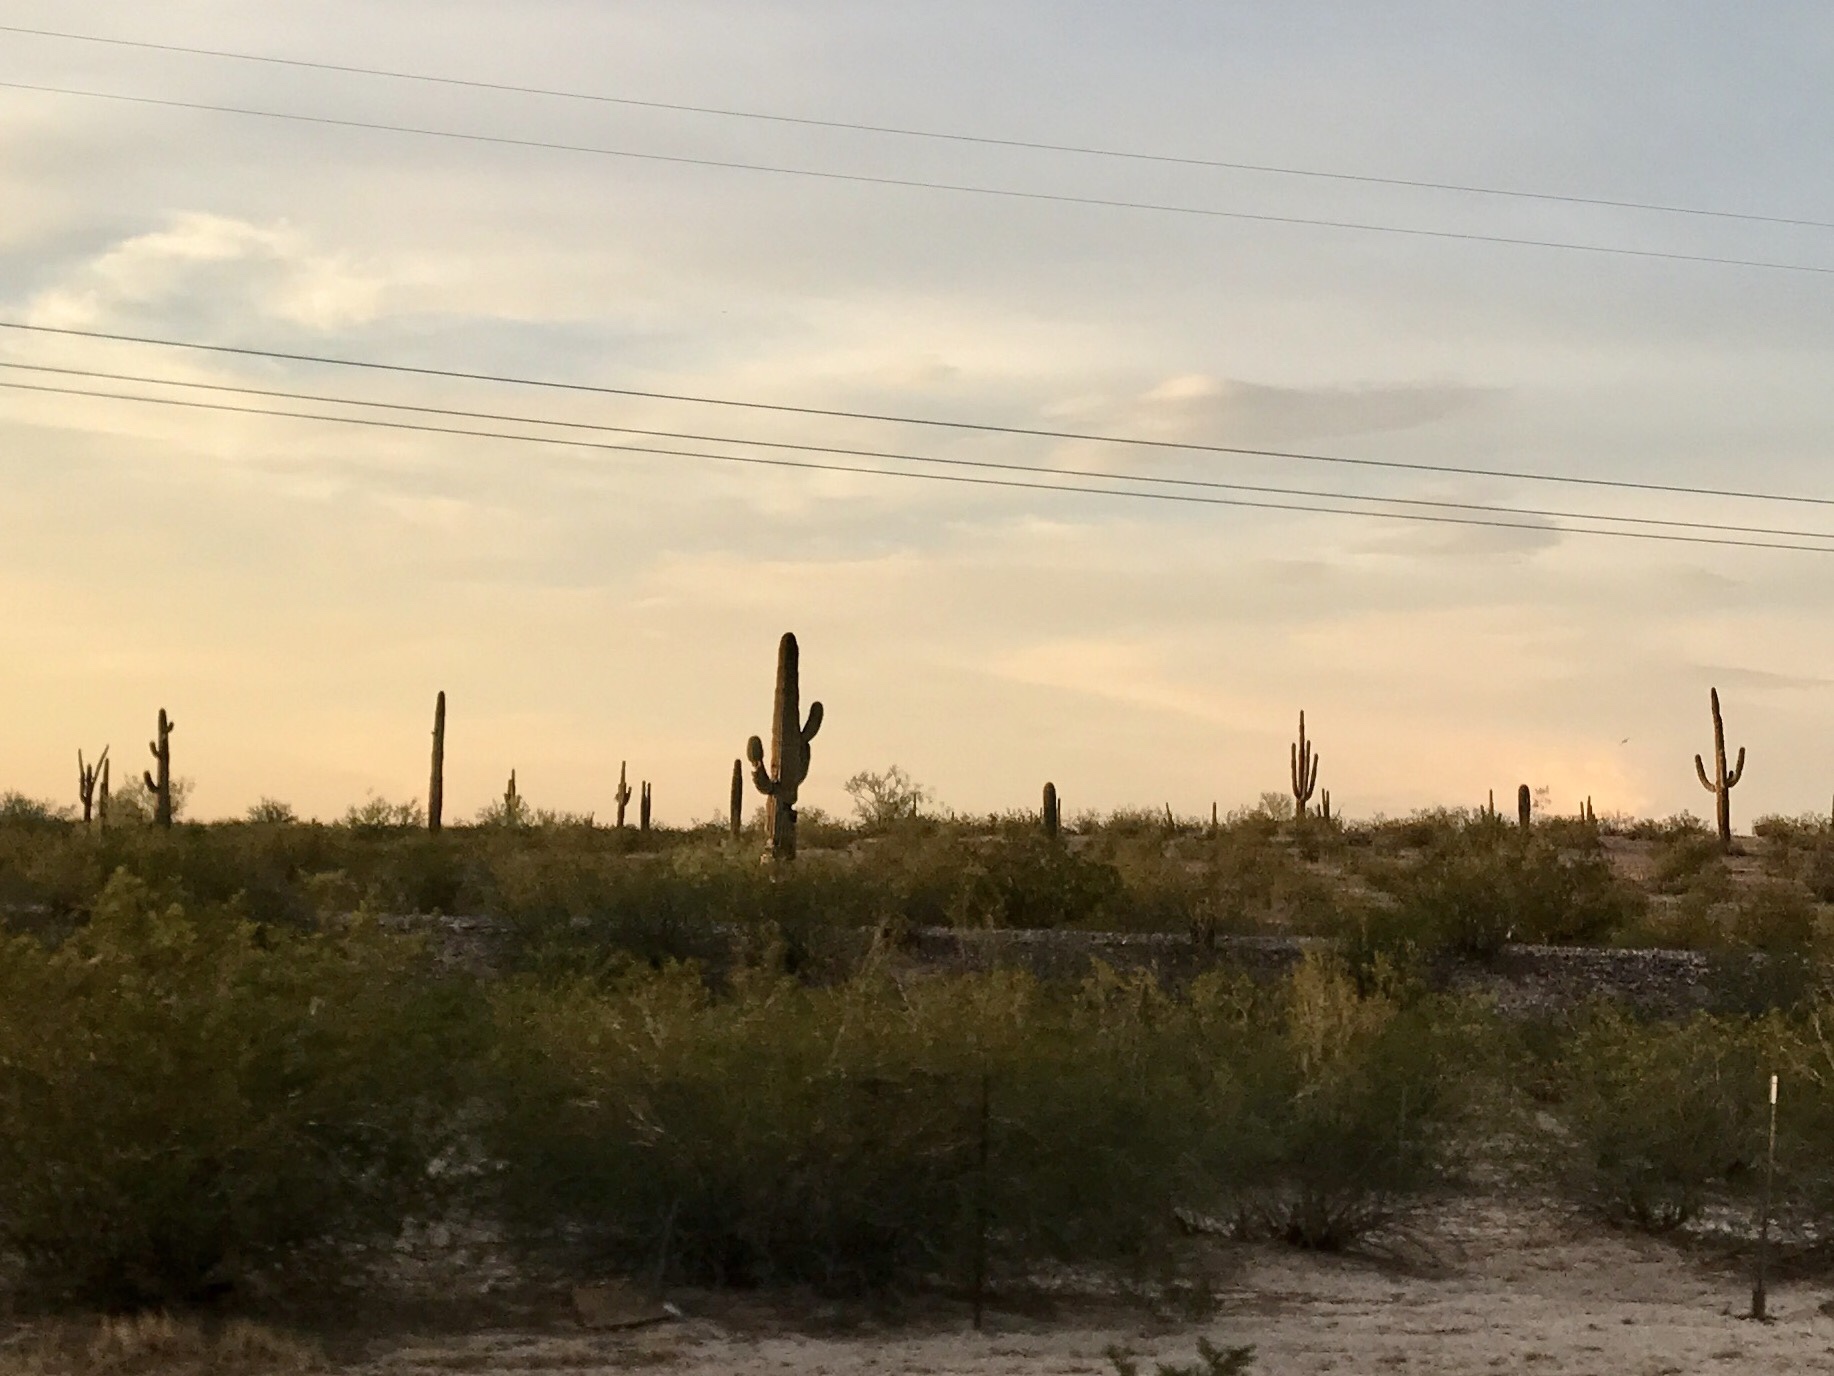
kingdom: Plantae
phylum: Tracheophyta
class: Magnoliopsida
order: Caryophyllales
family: Cactaceae
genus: Carnegiea
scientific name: Carnegiea gigantea
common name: Saguaro
